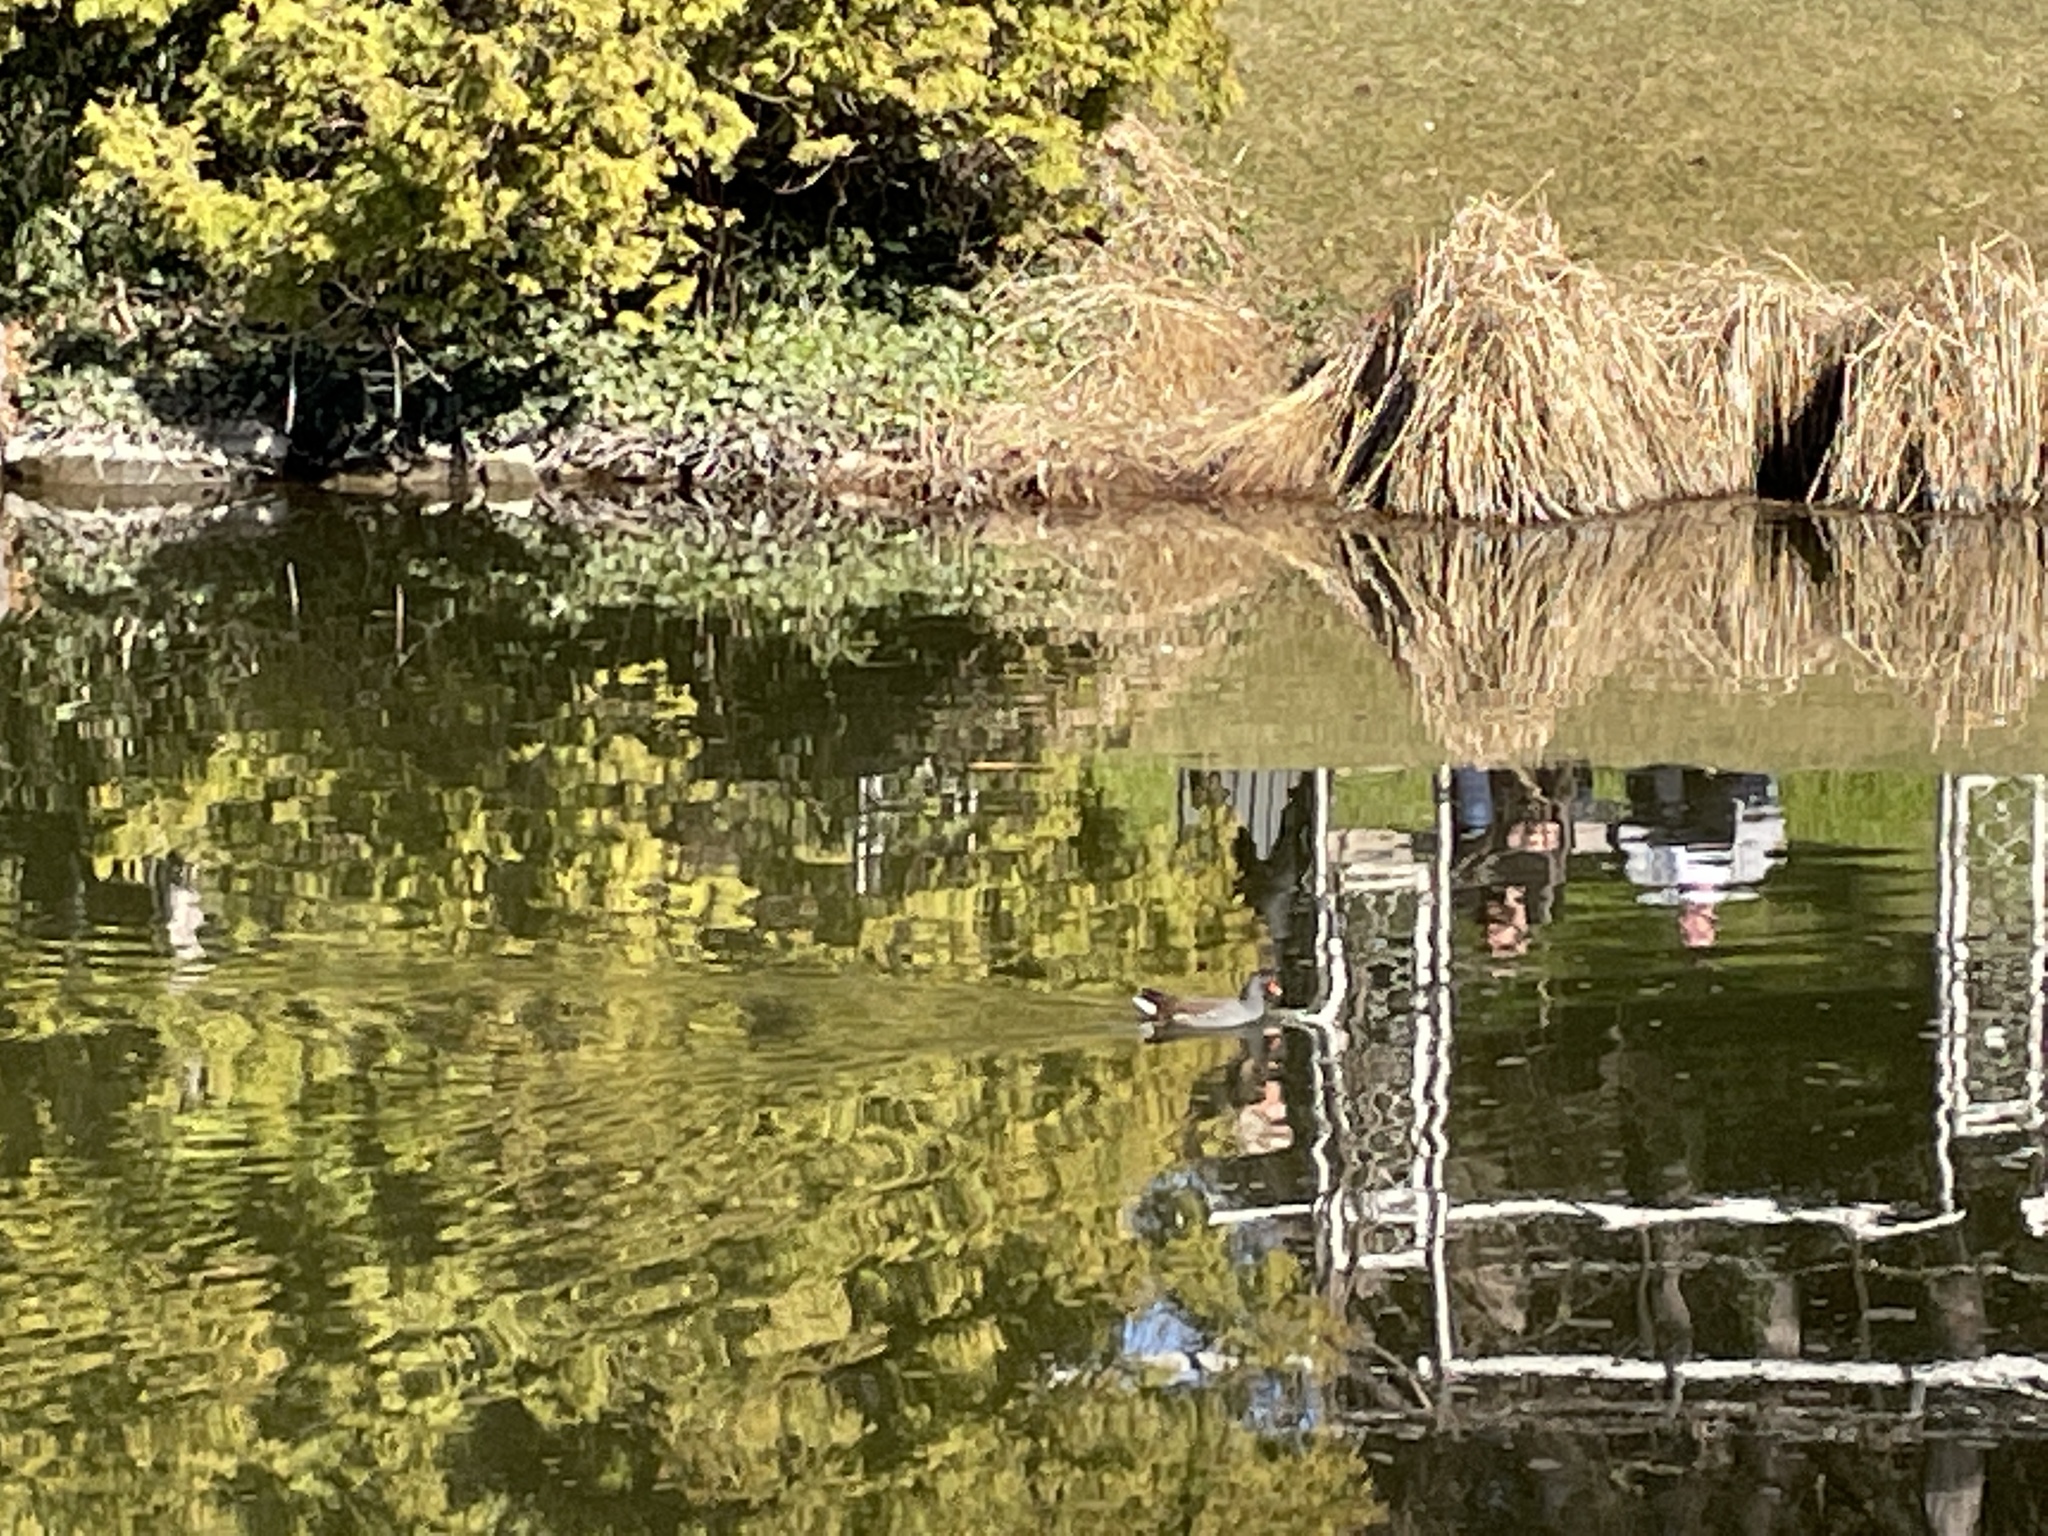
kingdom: Animalia
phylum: Chordata
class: Aves
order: Gruiformes
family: Rallidae
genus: Gallinula
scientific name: Gallinula chloropus
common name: Common moorhen
